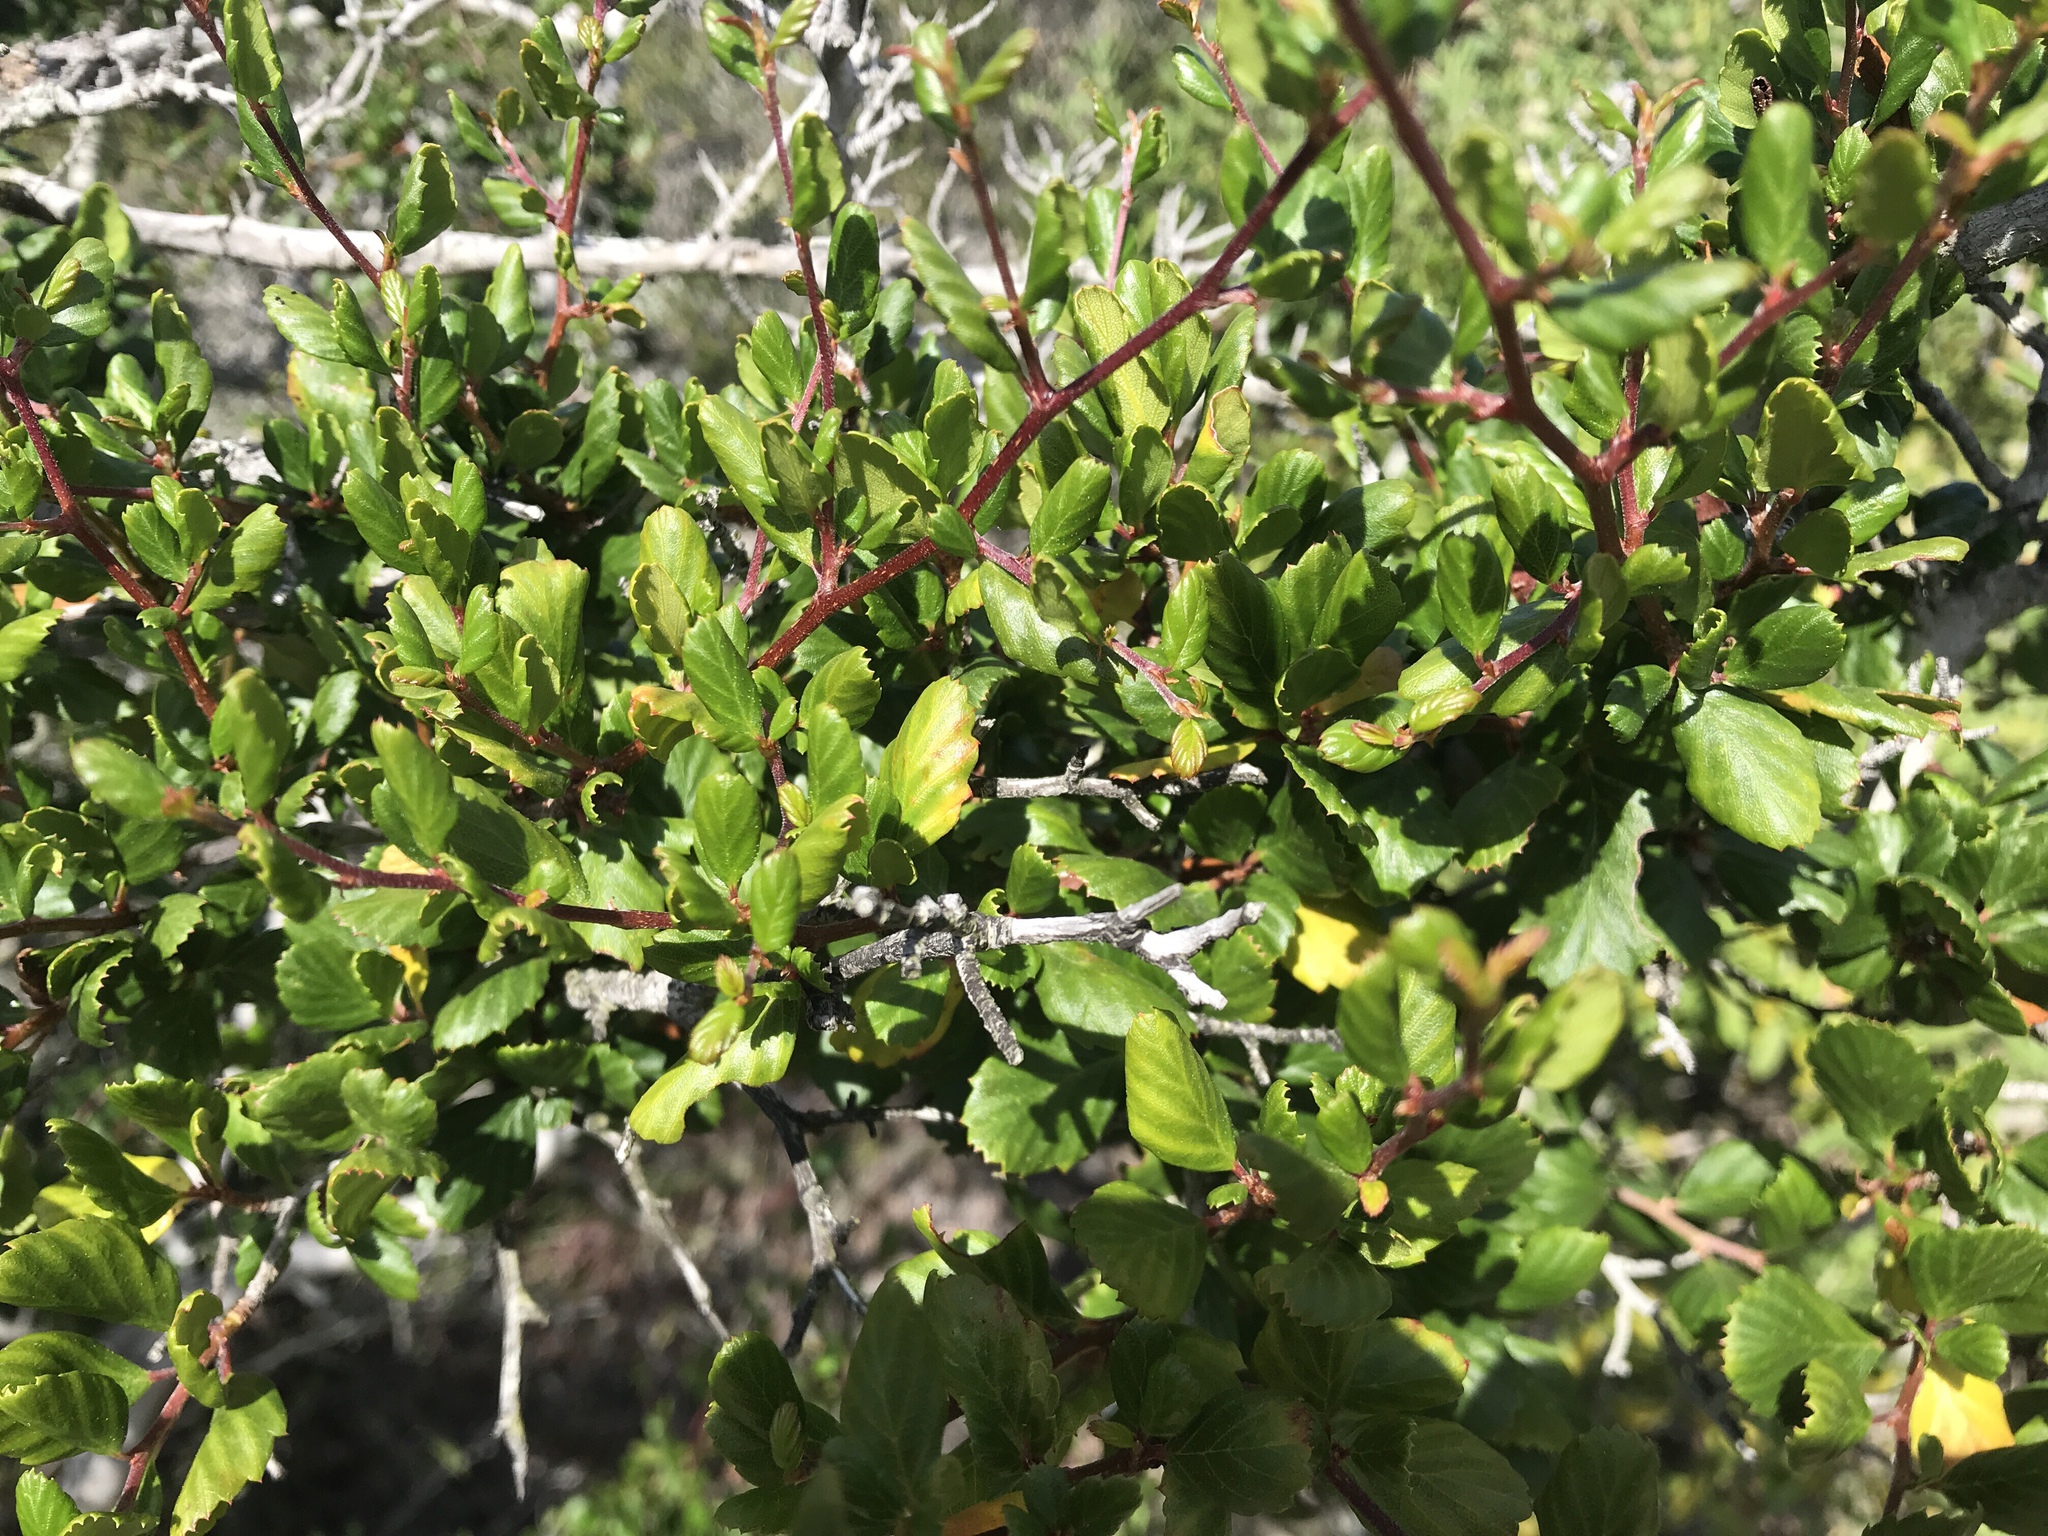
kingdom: Plantae
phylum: Tracheophyta
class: Magnoliopsida
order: Rosales
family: Rosaceae
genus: Cercocarpus
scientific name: Cercocarpus montanus
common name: Alder-leaf cercocarpus
